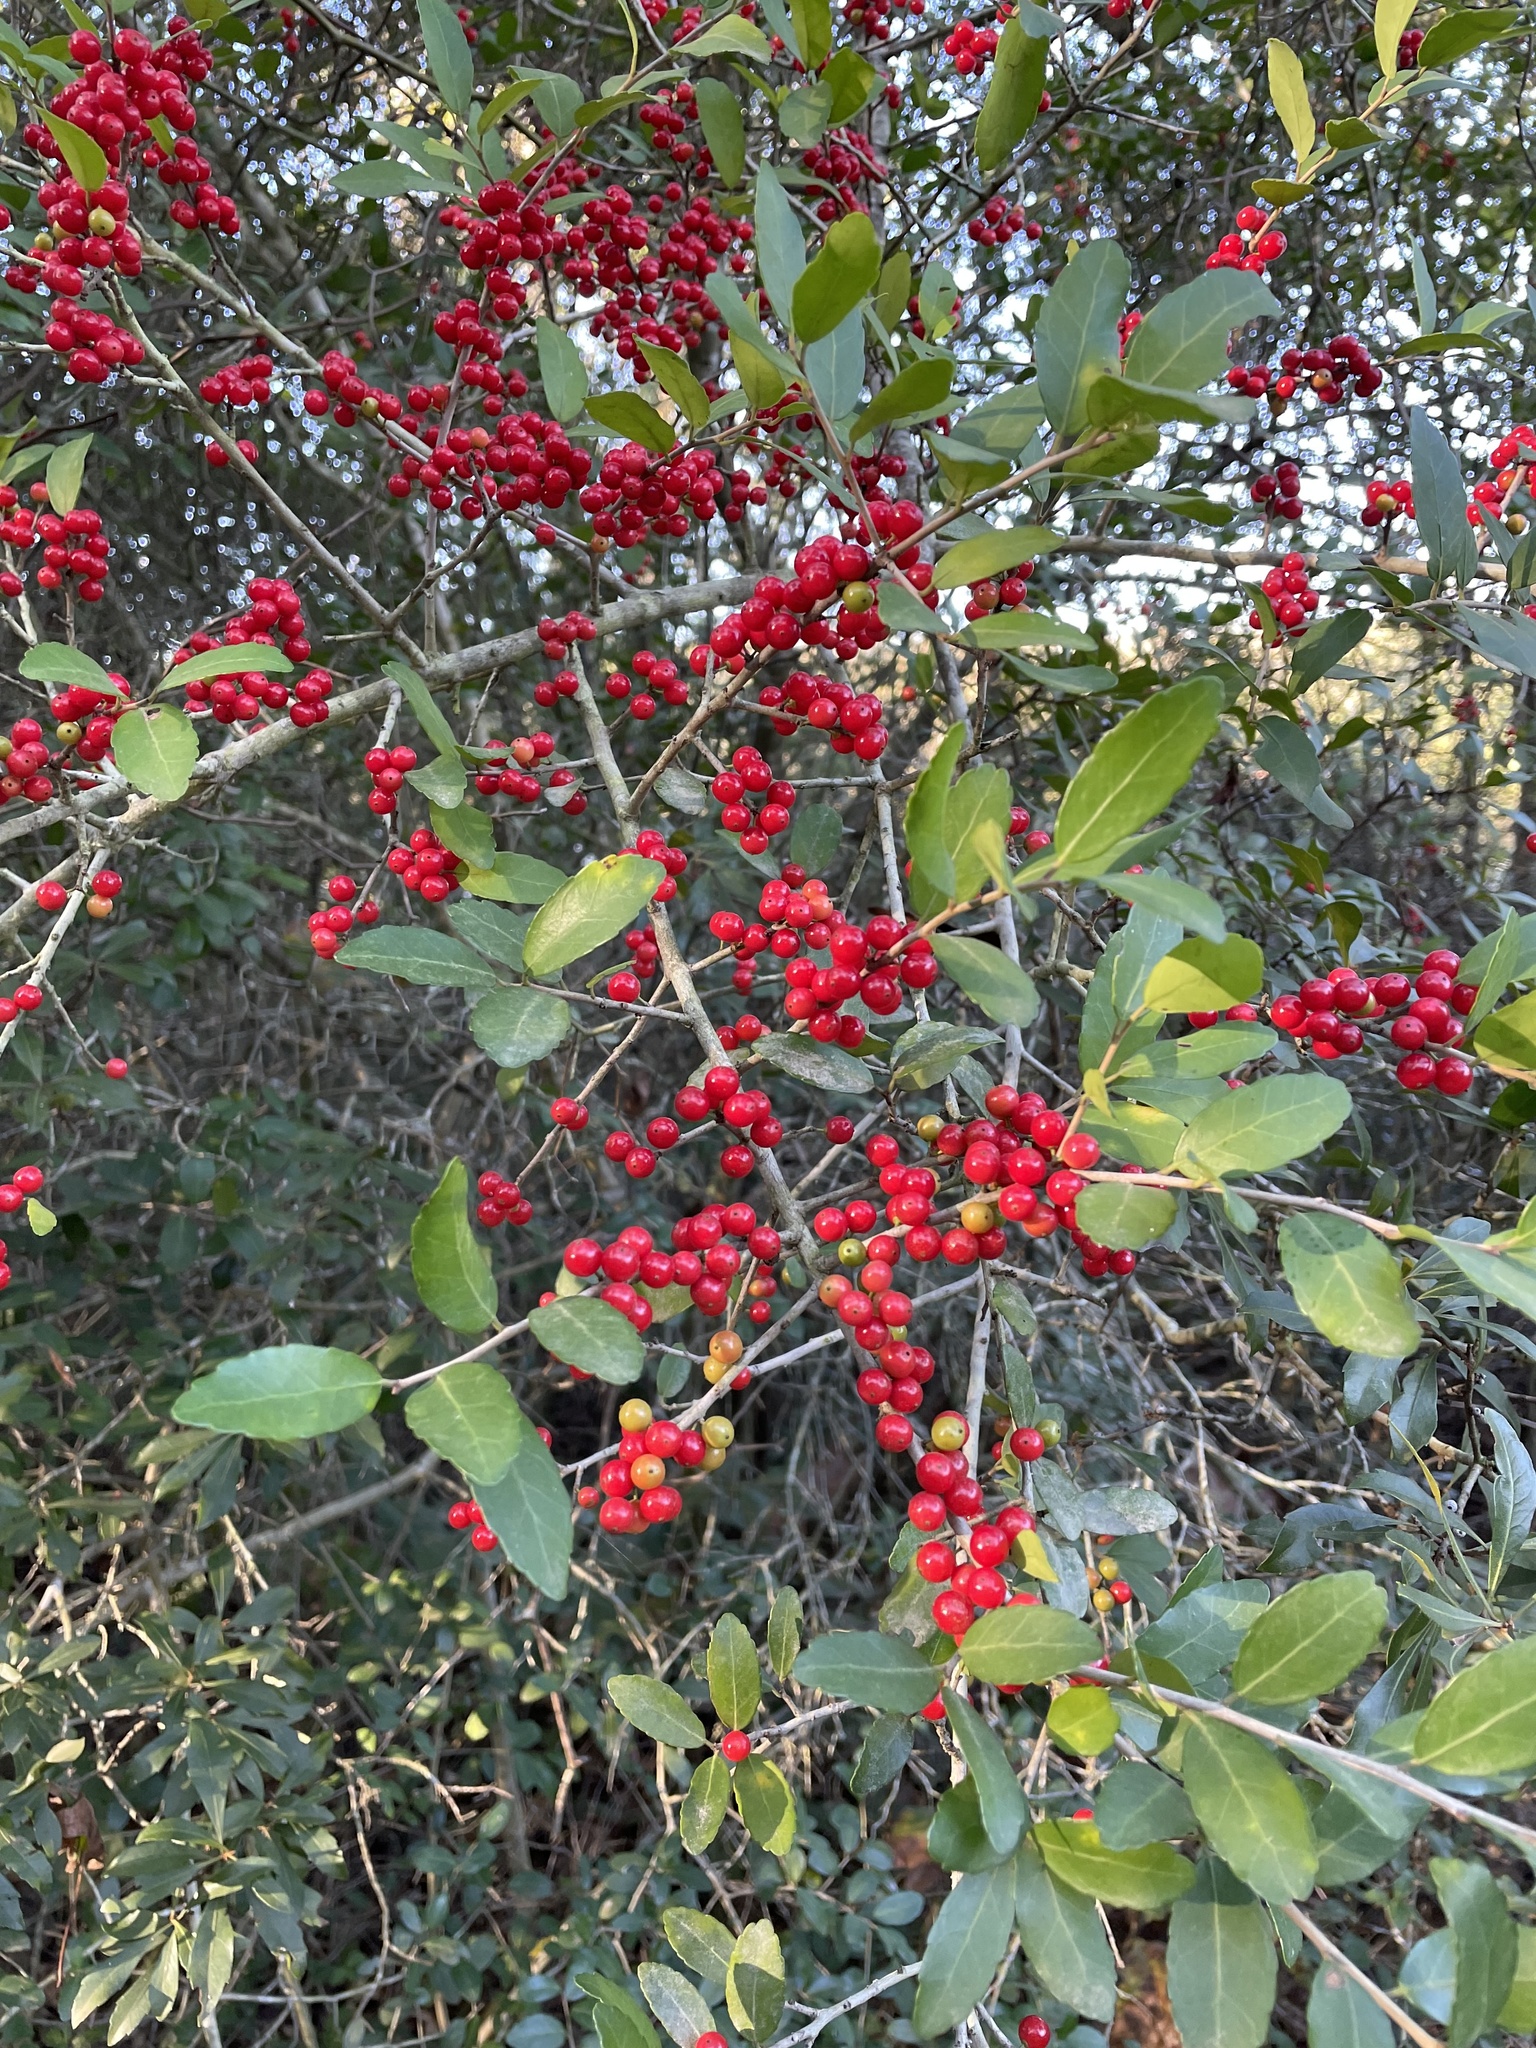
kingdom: Plantae
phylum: Tracheophyta
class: Magnoliopsida
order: Aquifoliales
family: Aquifoliaceae
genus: Ilex
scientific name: Ilex vomitoria
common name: Yaupon holly
